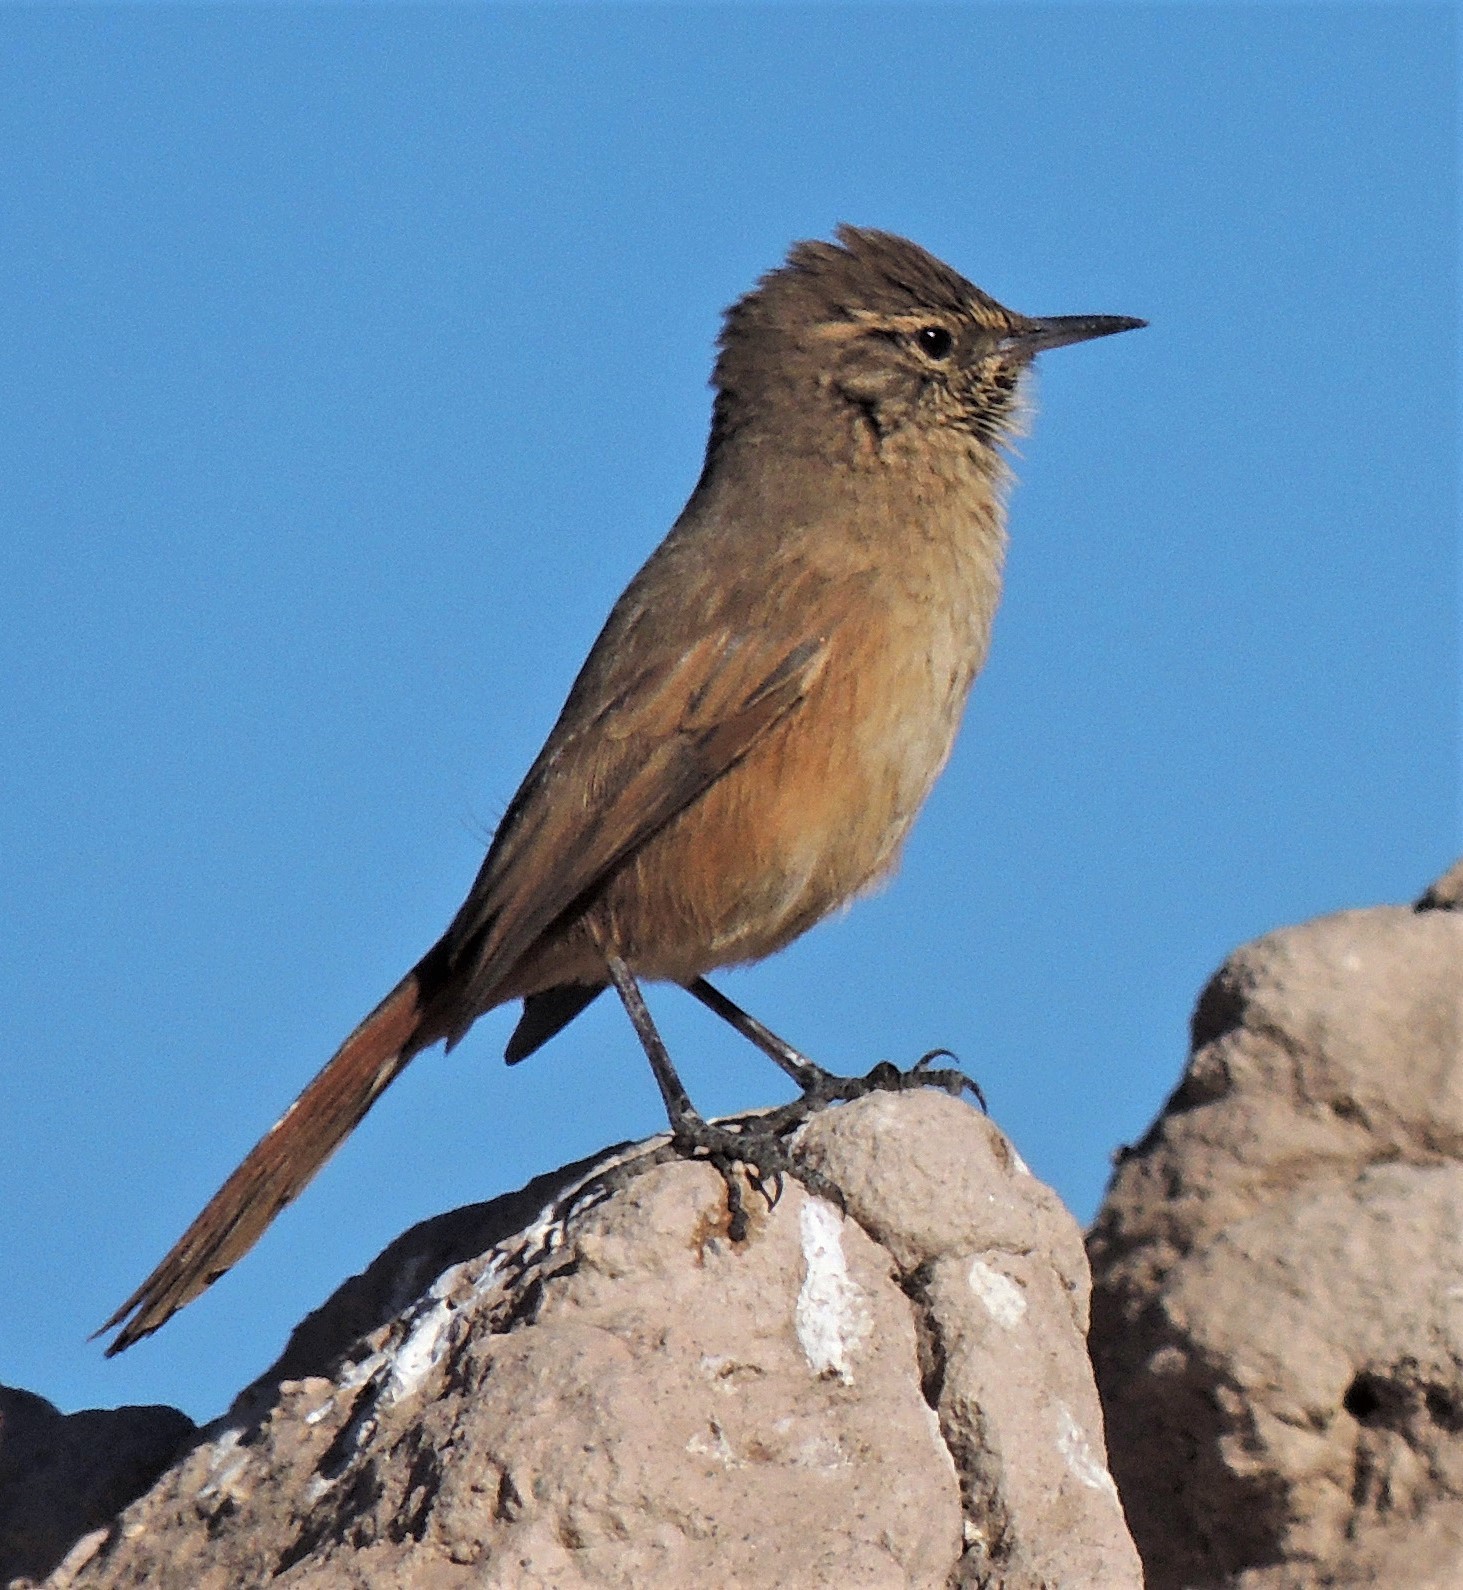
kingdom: Animalia
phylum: Chordata
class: Aves
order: Passeriformes
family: Furnariidae
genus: Asthenes
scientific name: Asthenes modesta
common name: Cordilleran canastero
